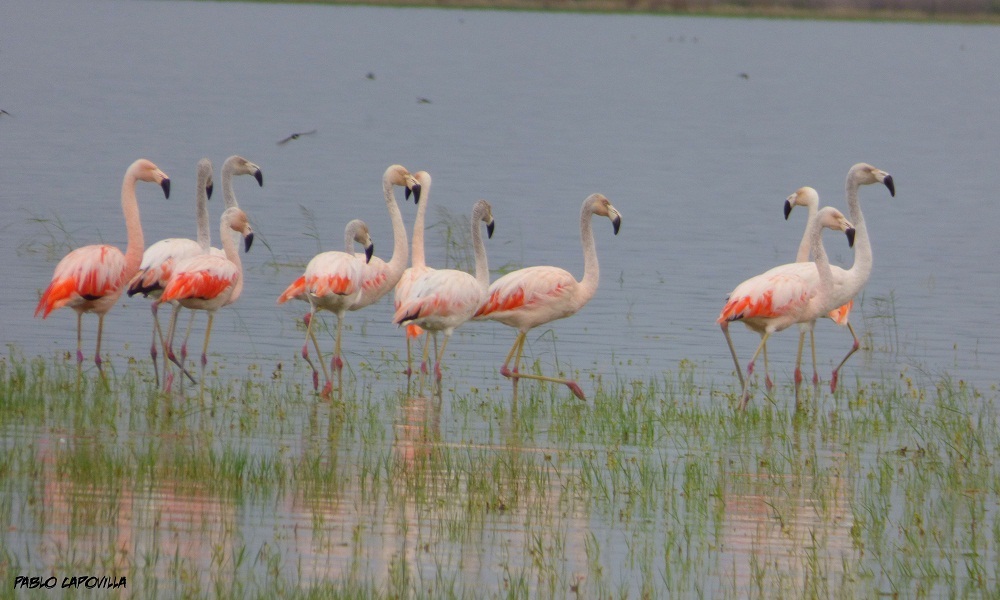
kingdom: Animalia
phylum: Chordata
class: Aves
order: Phoenicopteriformes
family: Phoenicopteridae
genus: Phoenicopterus
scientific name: Phoenicopterus chilensis
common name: Chilean flamingo
